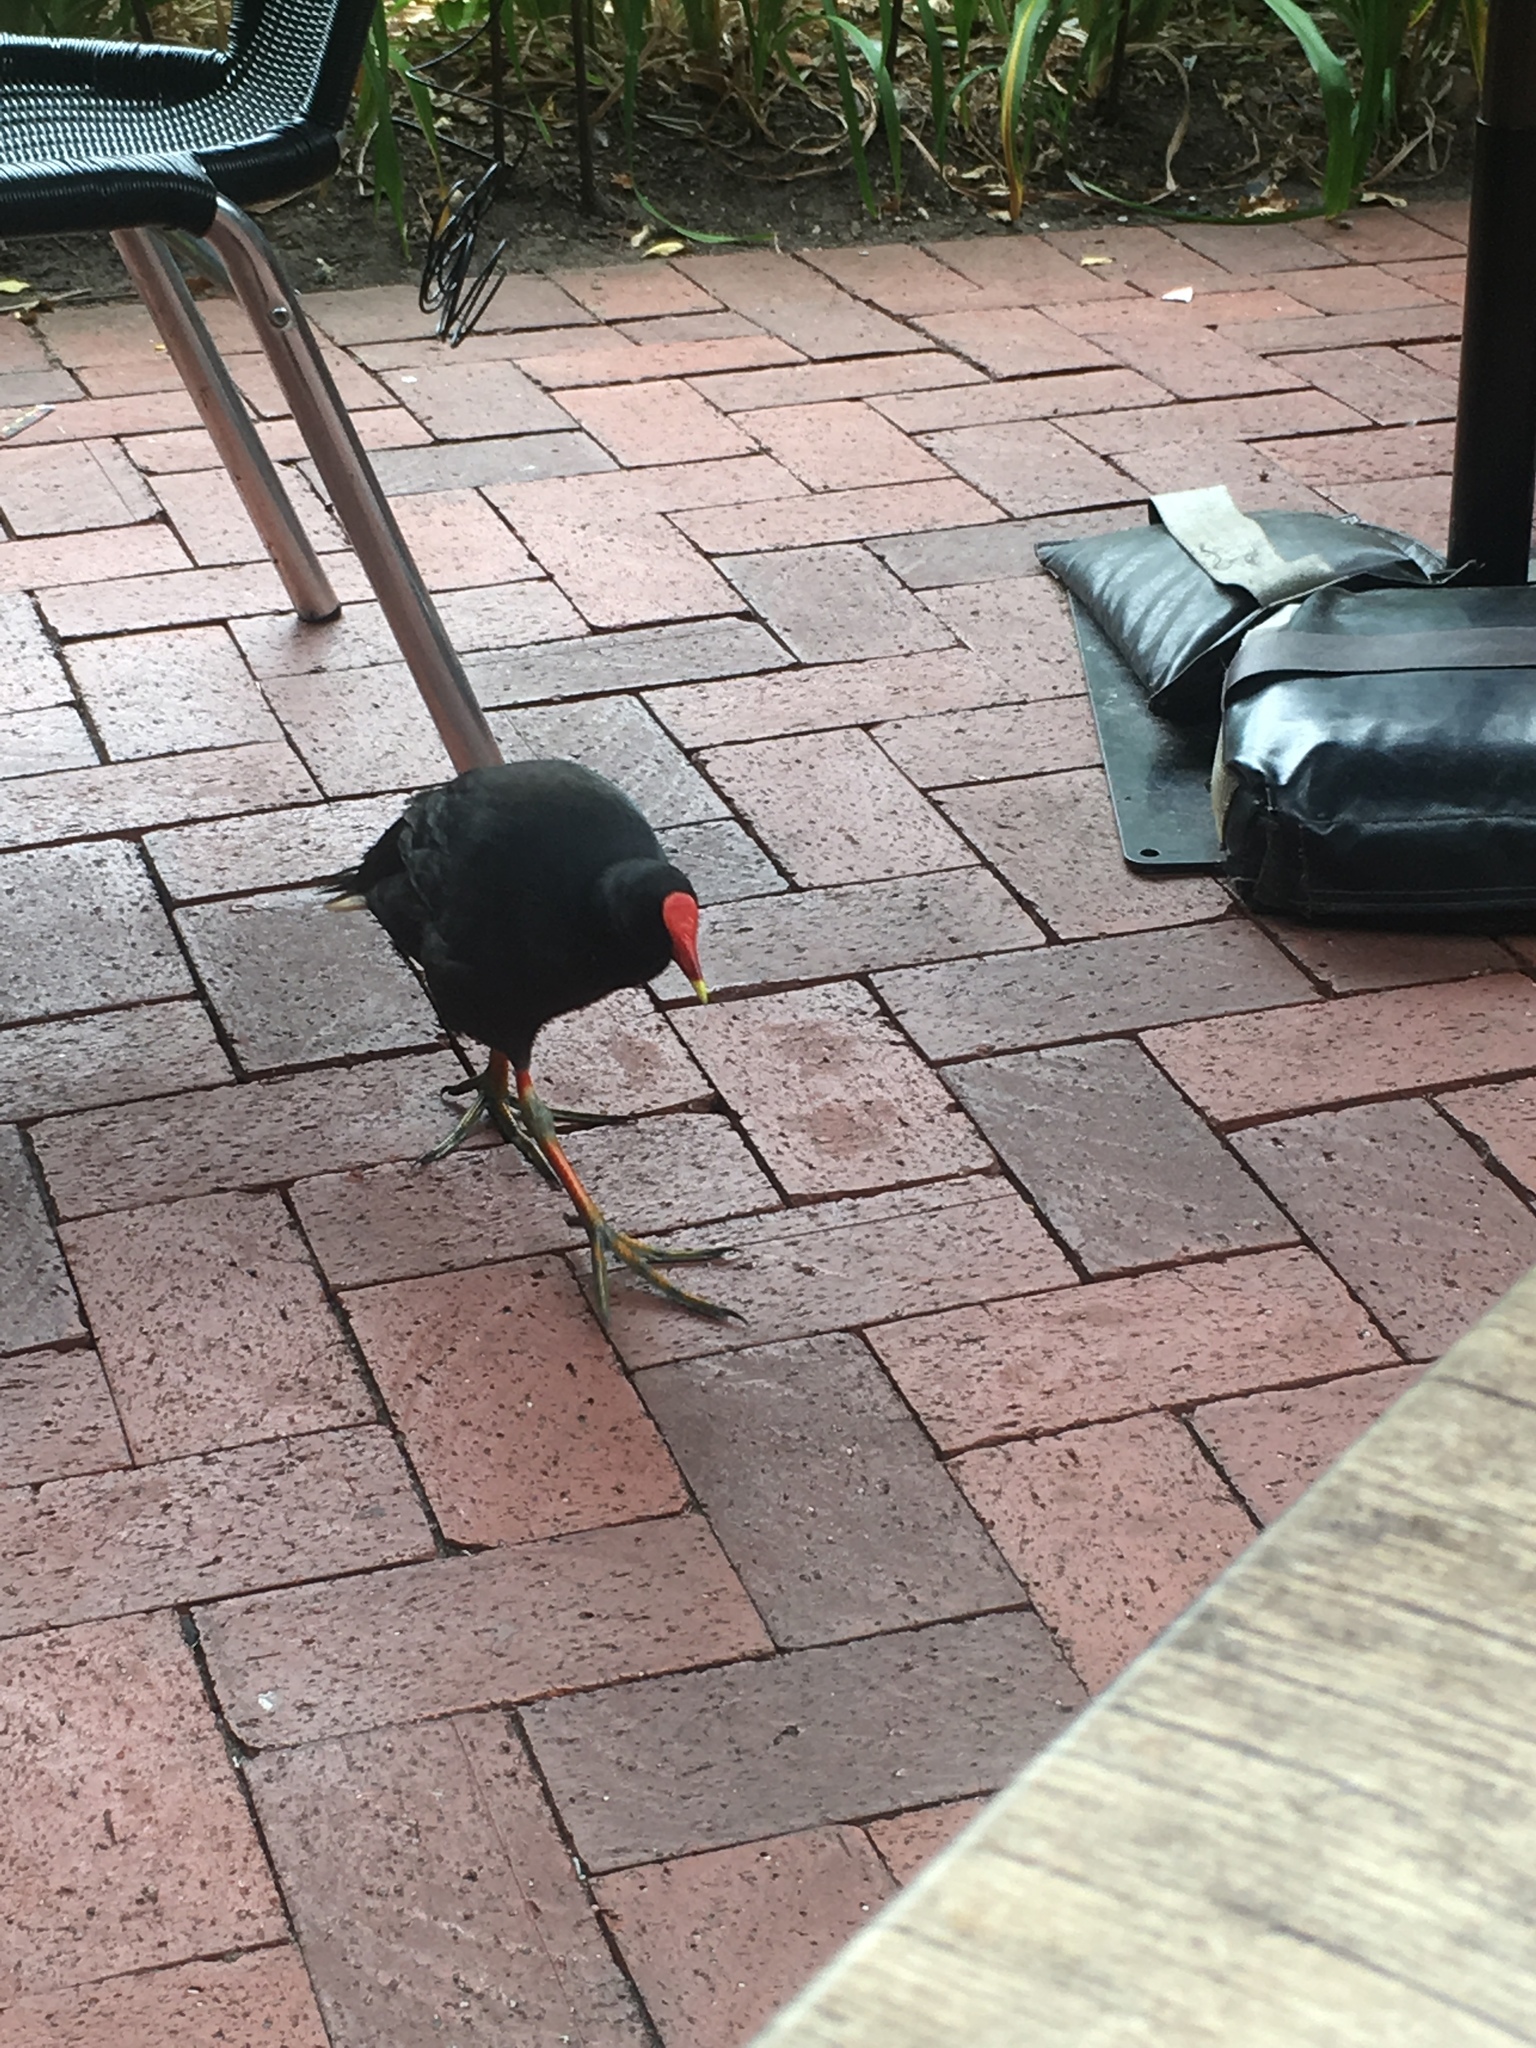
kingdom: Animalia
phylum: Chordata
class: Aves
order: Gruiformes
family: Rallidae
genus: Gallinula
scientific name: Gallinula tenebrosa
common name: Dusky moorhen
